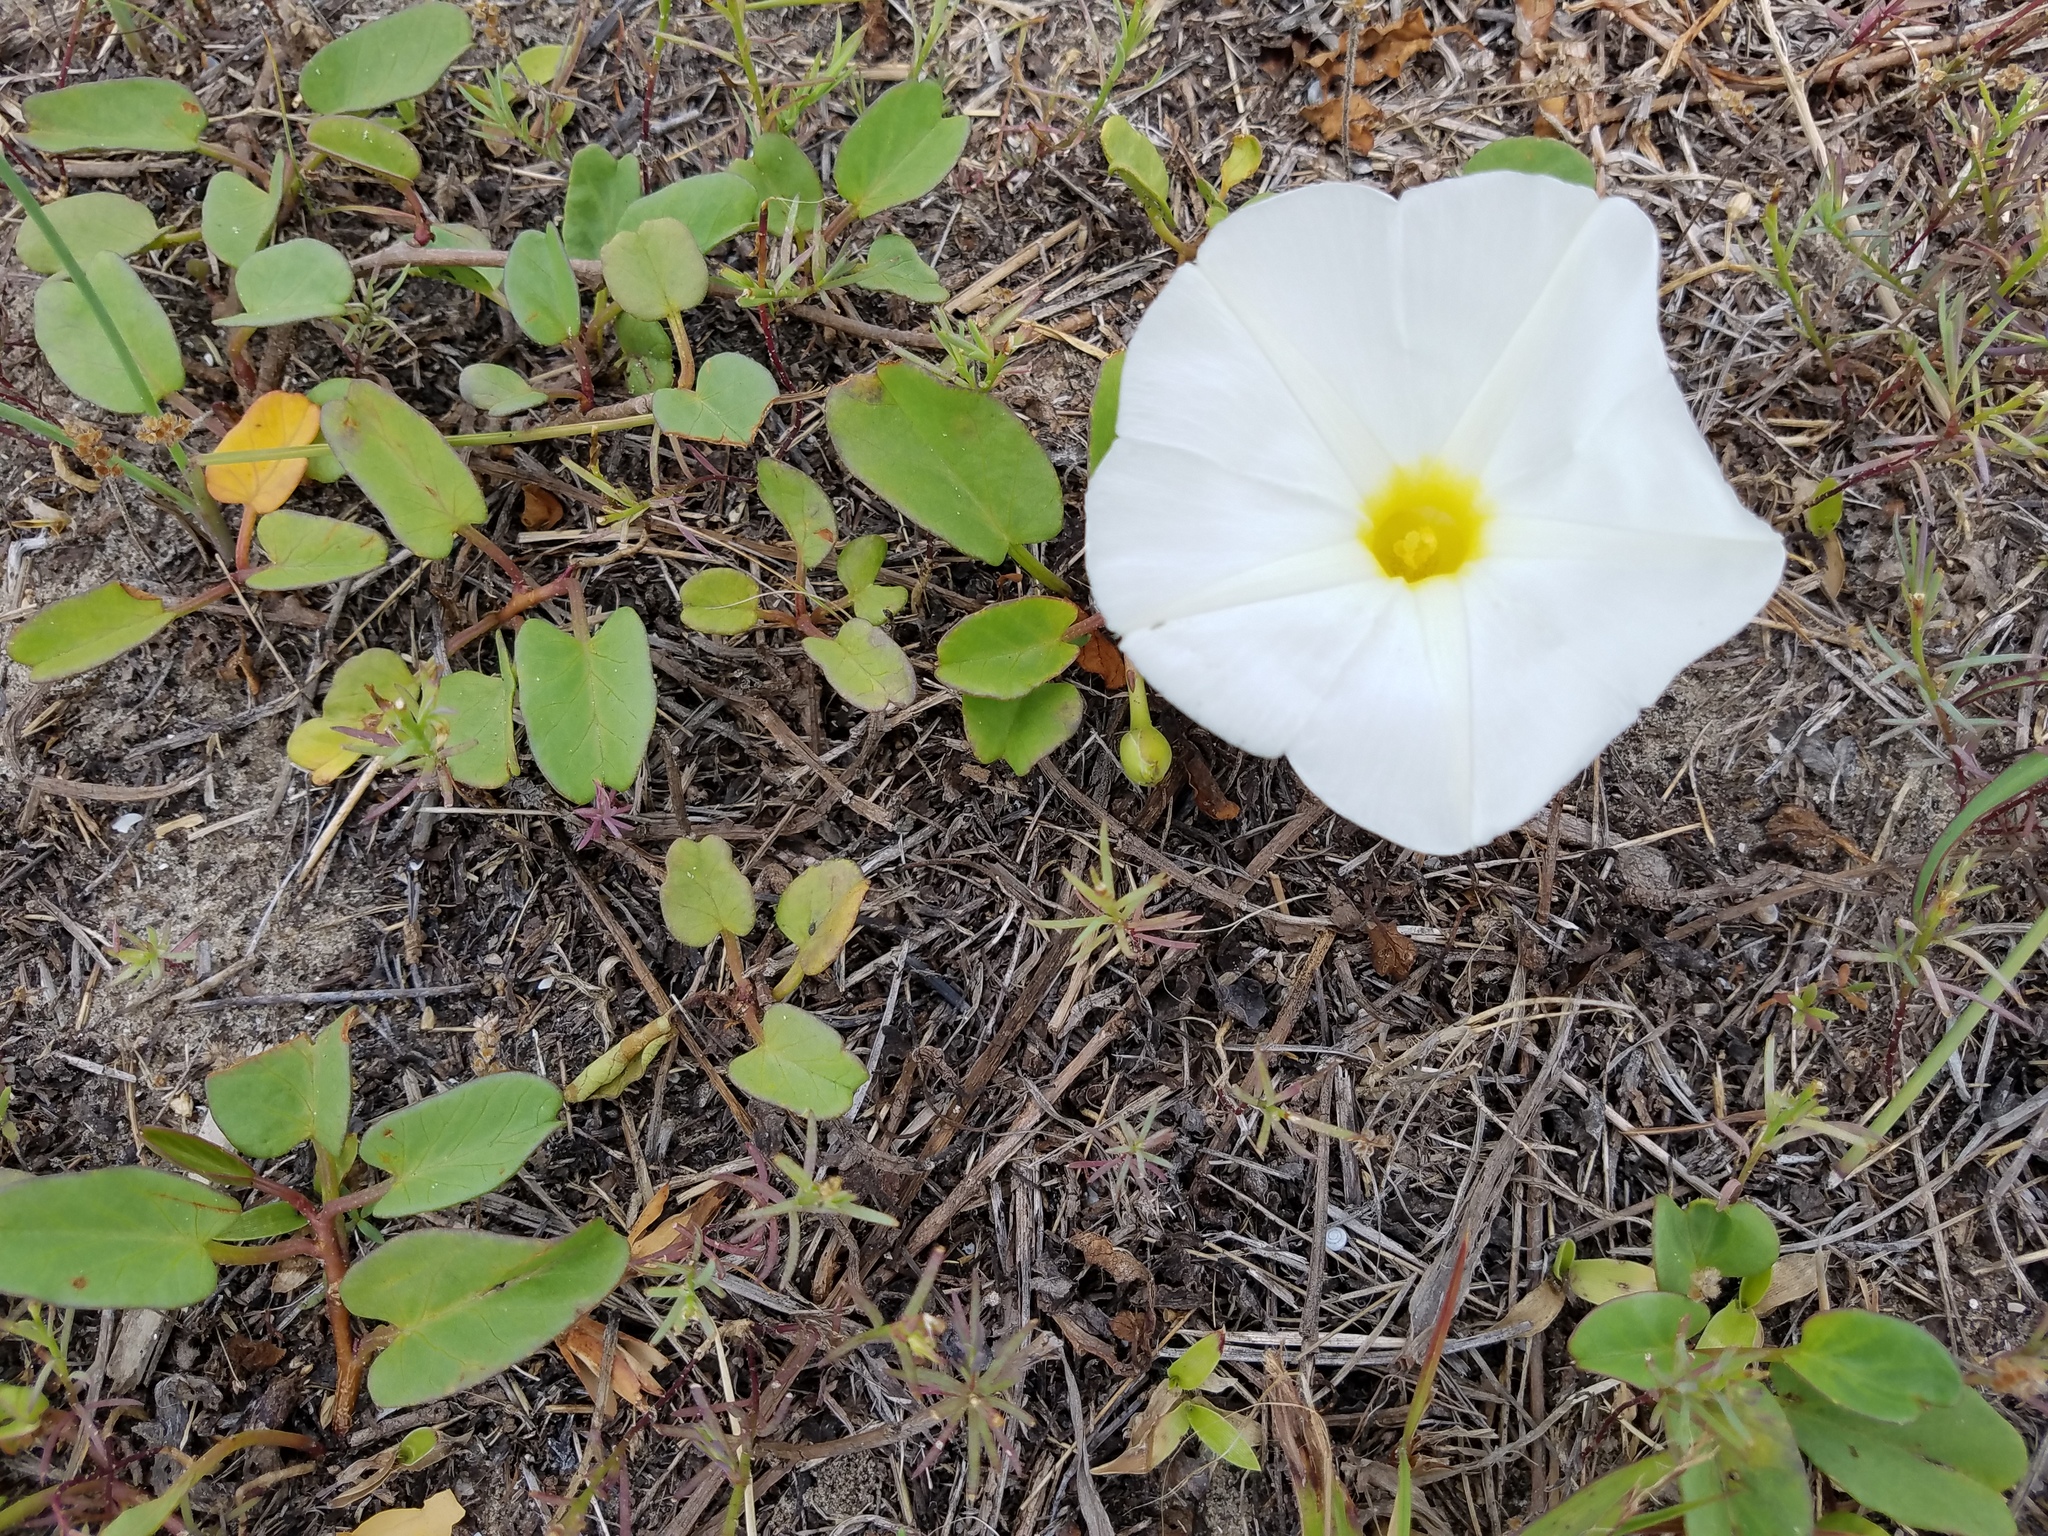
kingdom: Plantae
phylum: Tracheophyta
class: Magnoliopsida
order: Solanales
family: Convolvulaceae
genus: Ipomoea
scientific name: Ipomoea imperati
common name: Fiddle-leaf morning-glory
